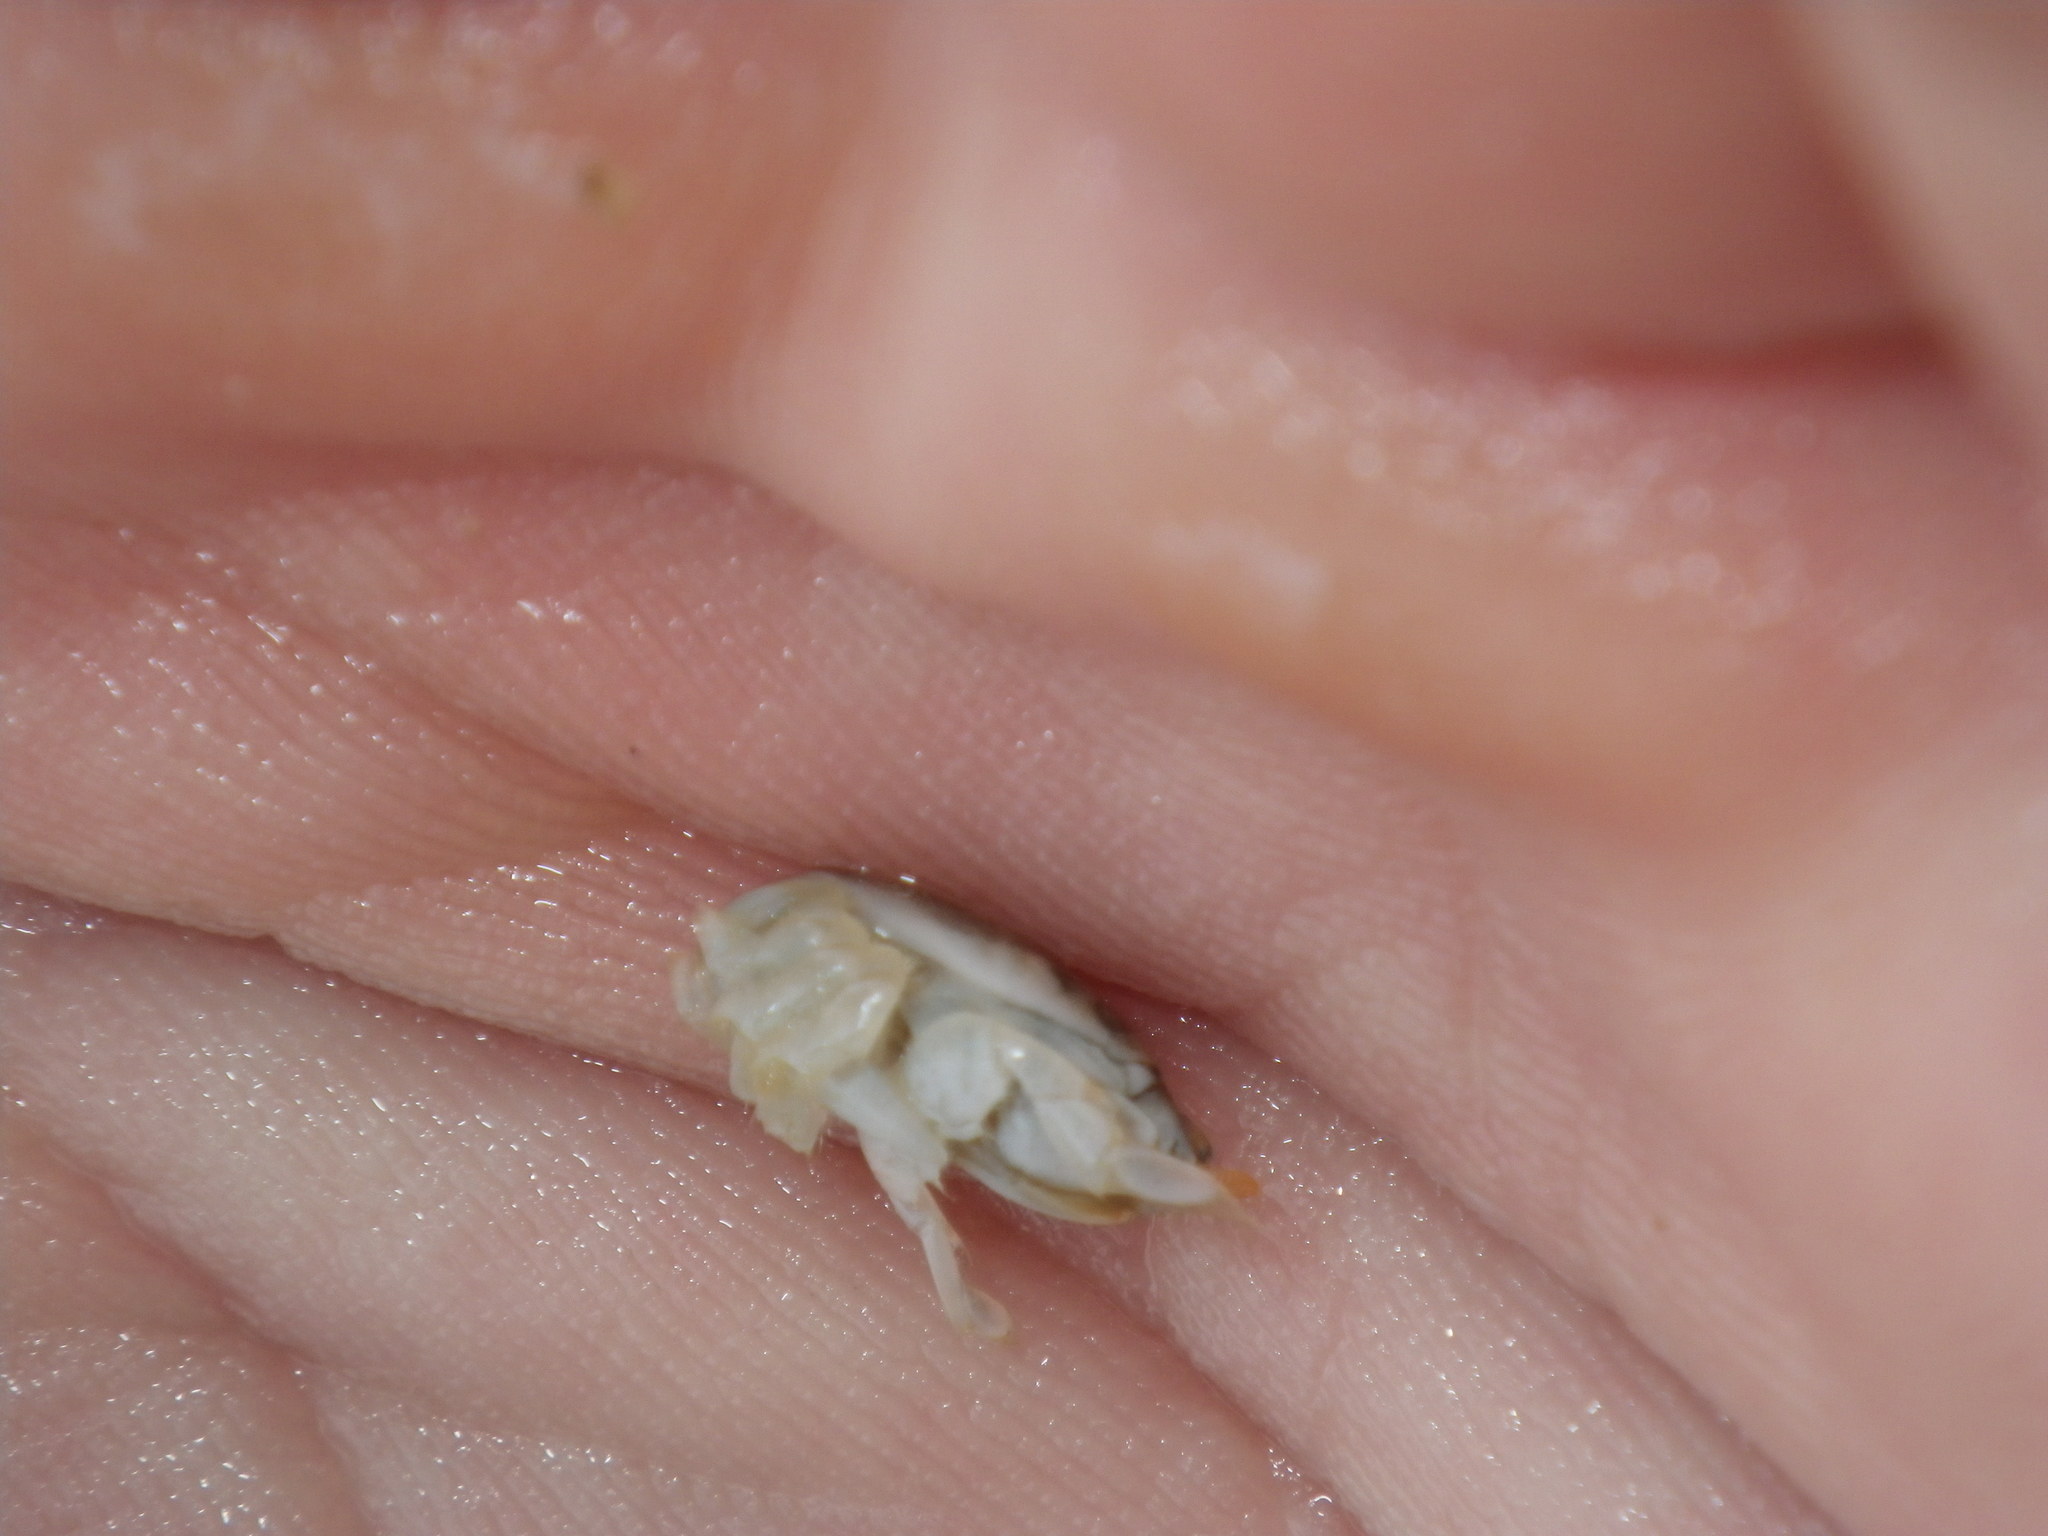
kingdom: Animalia
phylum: Arthropoda
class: Malacostraca
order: Decapoda
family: Hippidae
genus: Emerita
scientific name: Emerita analoga
